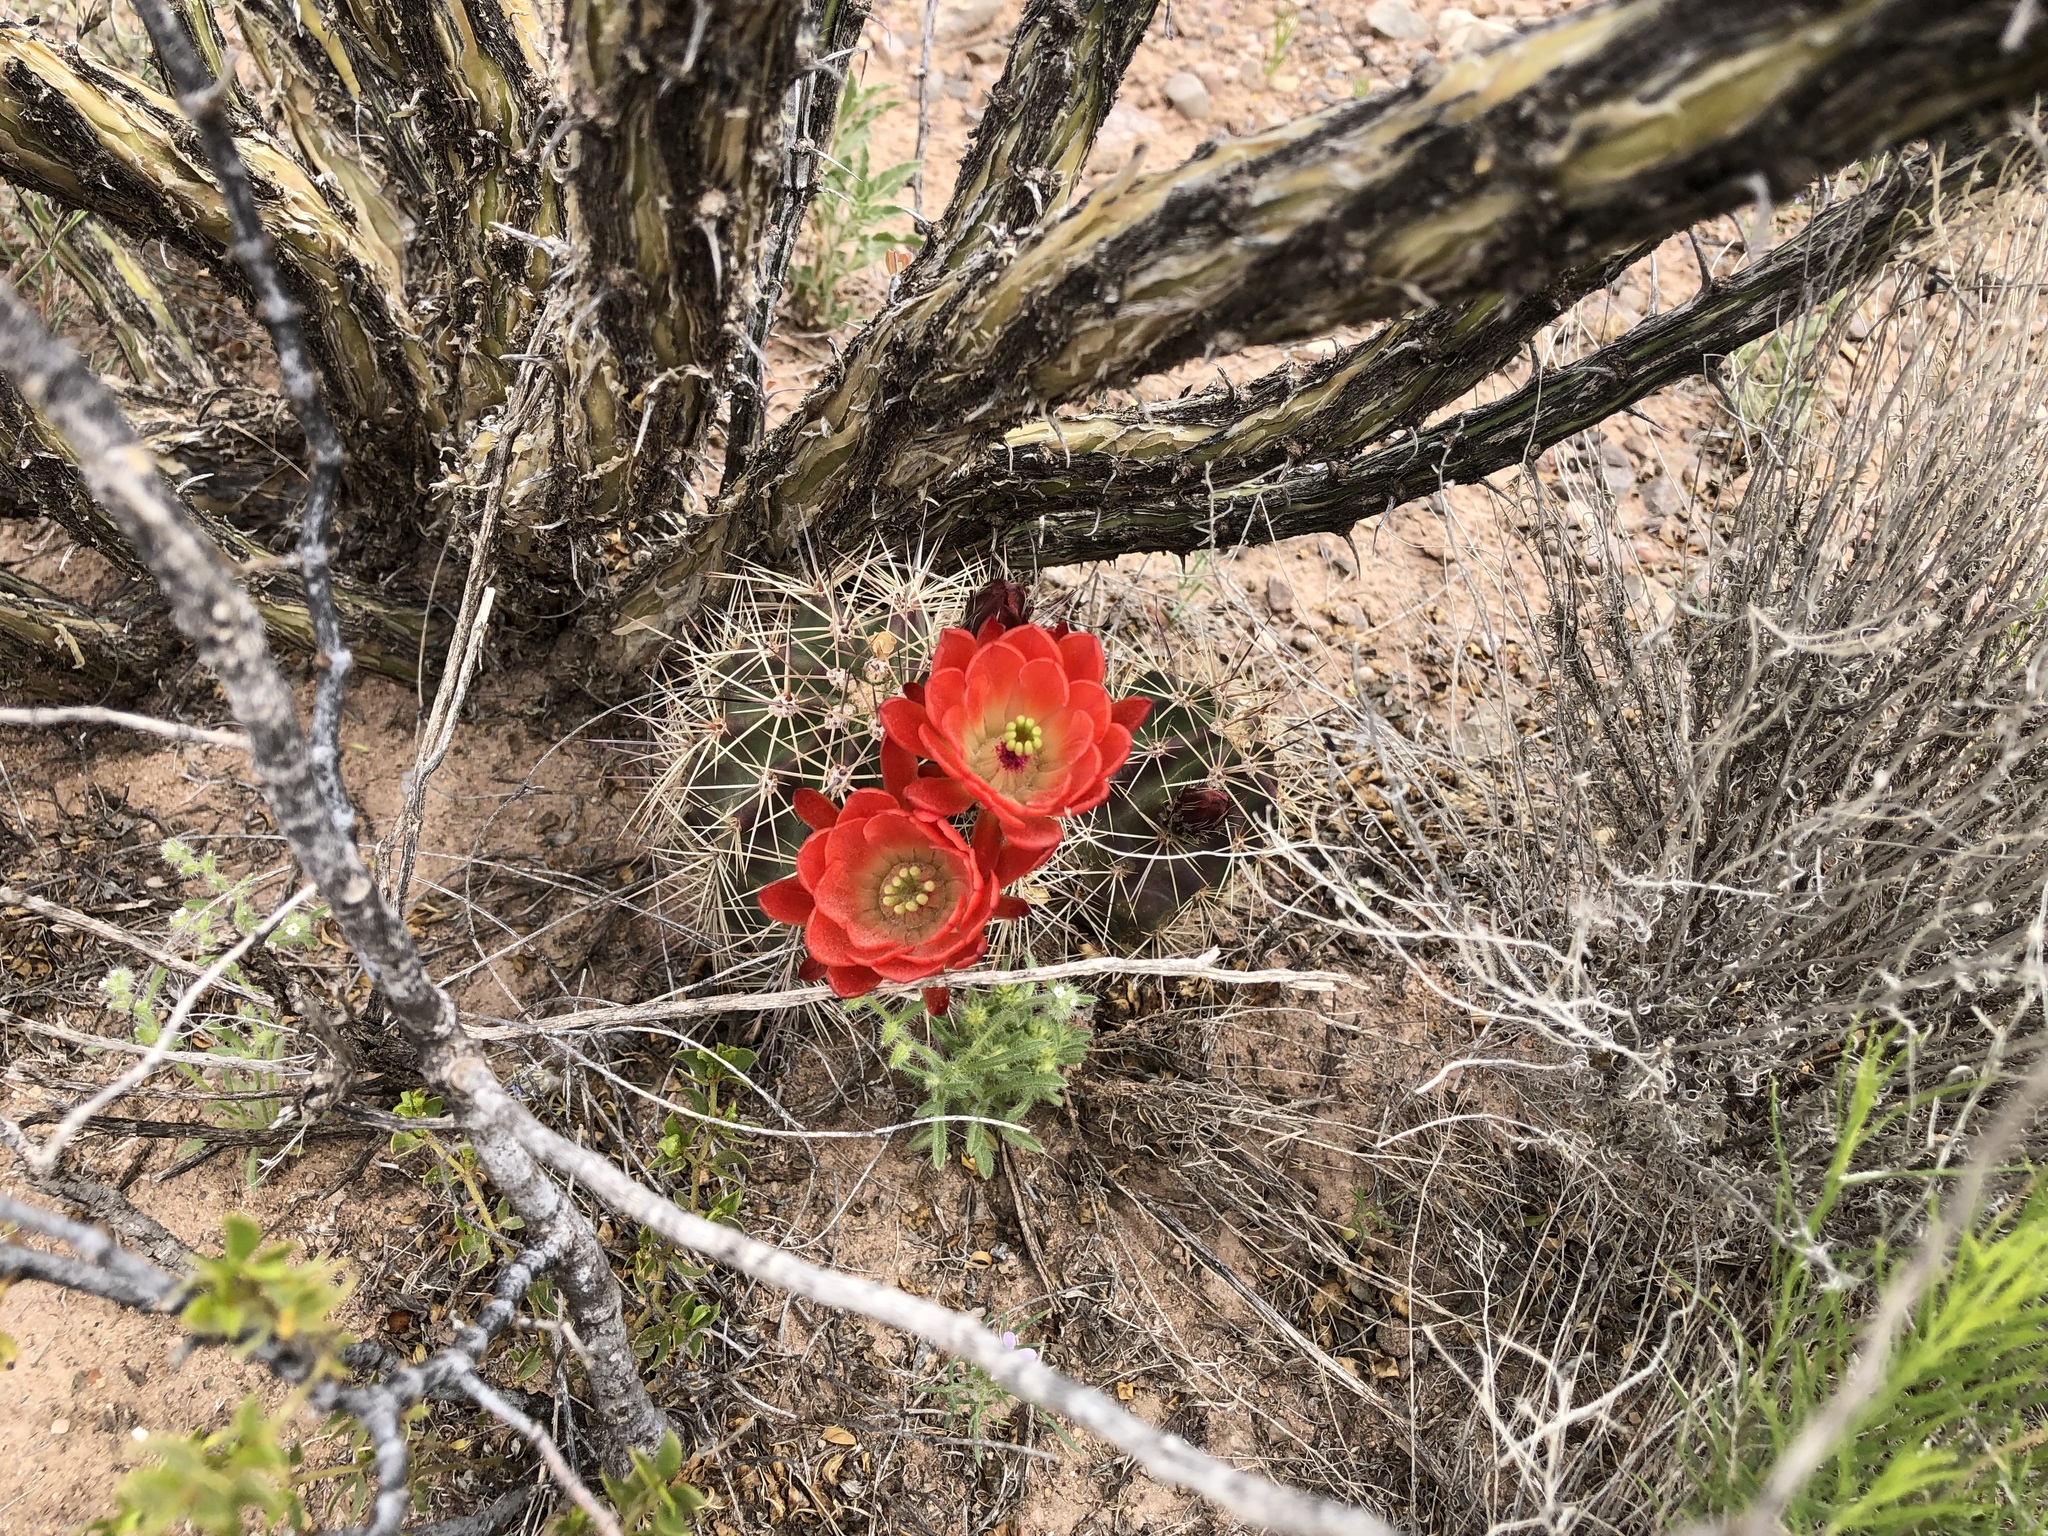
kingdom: Plantae
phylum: Tracheophyta
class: Magnoliopsida
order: Caryophyllales
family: Cactaceae
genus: Echinocereus
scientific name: Echinocereus coccineus
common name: Scarlet hedgehog cactus
